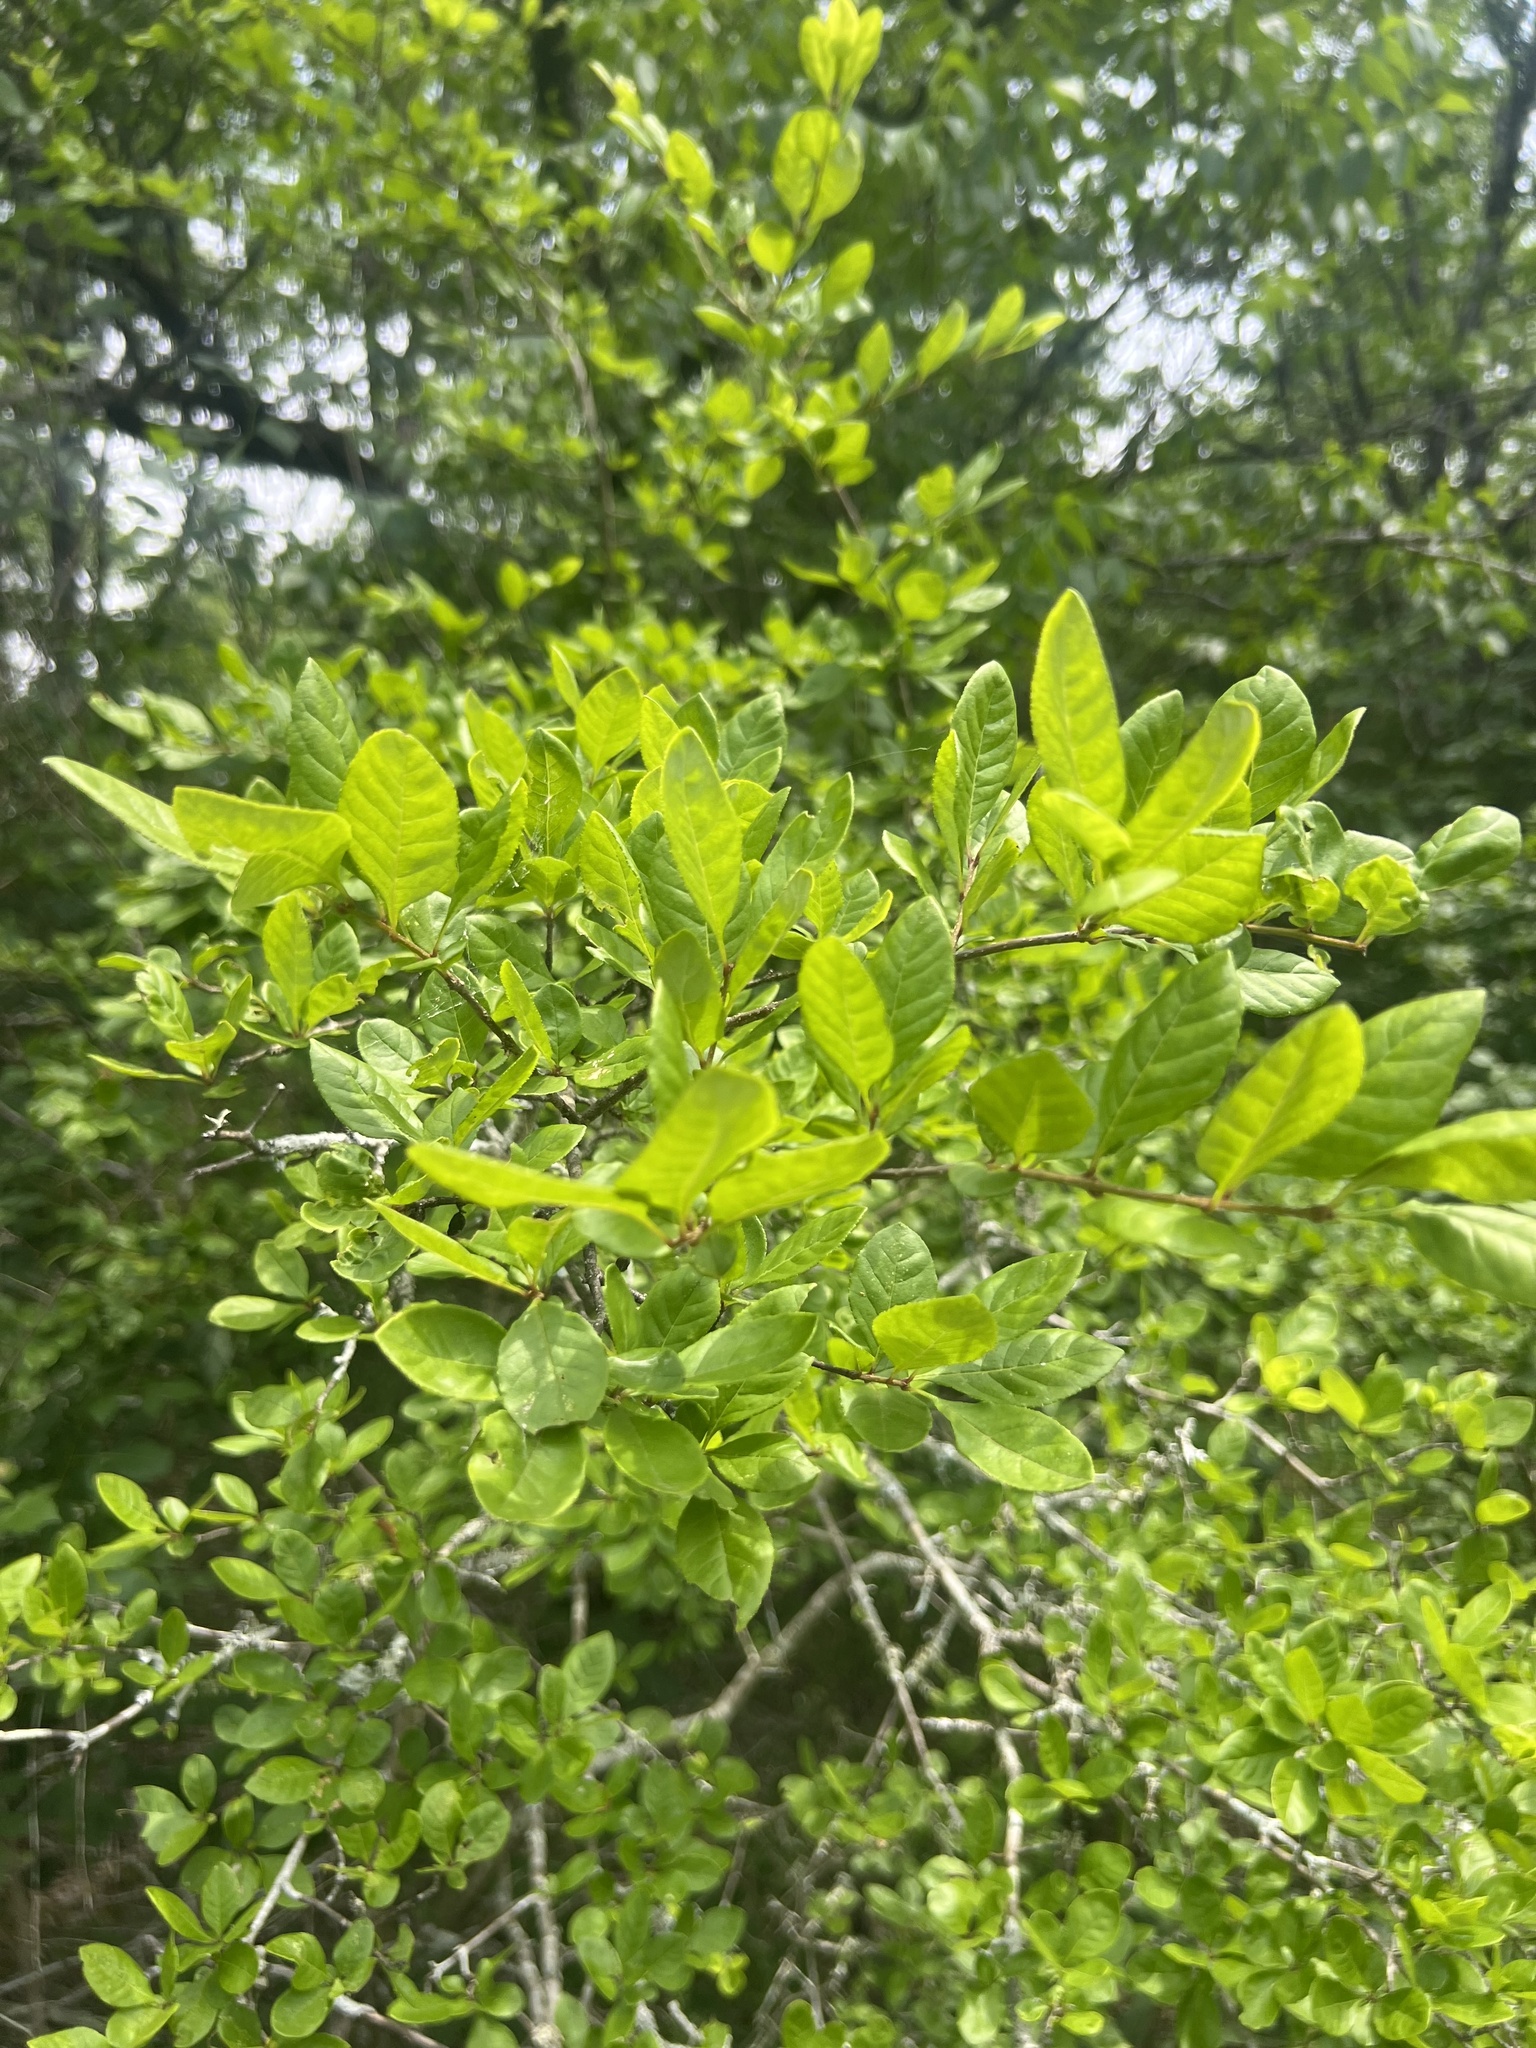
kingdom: Plantae
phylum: Tracheophyta
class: Magnoliopsida
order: Lamiales
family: Oleaceae
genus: Forestiera
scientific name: Forestiera ligustrina
